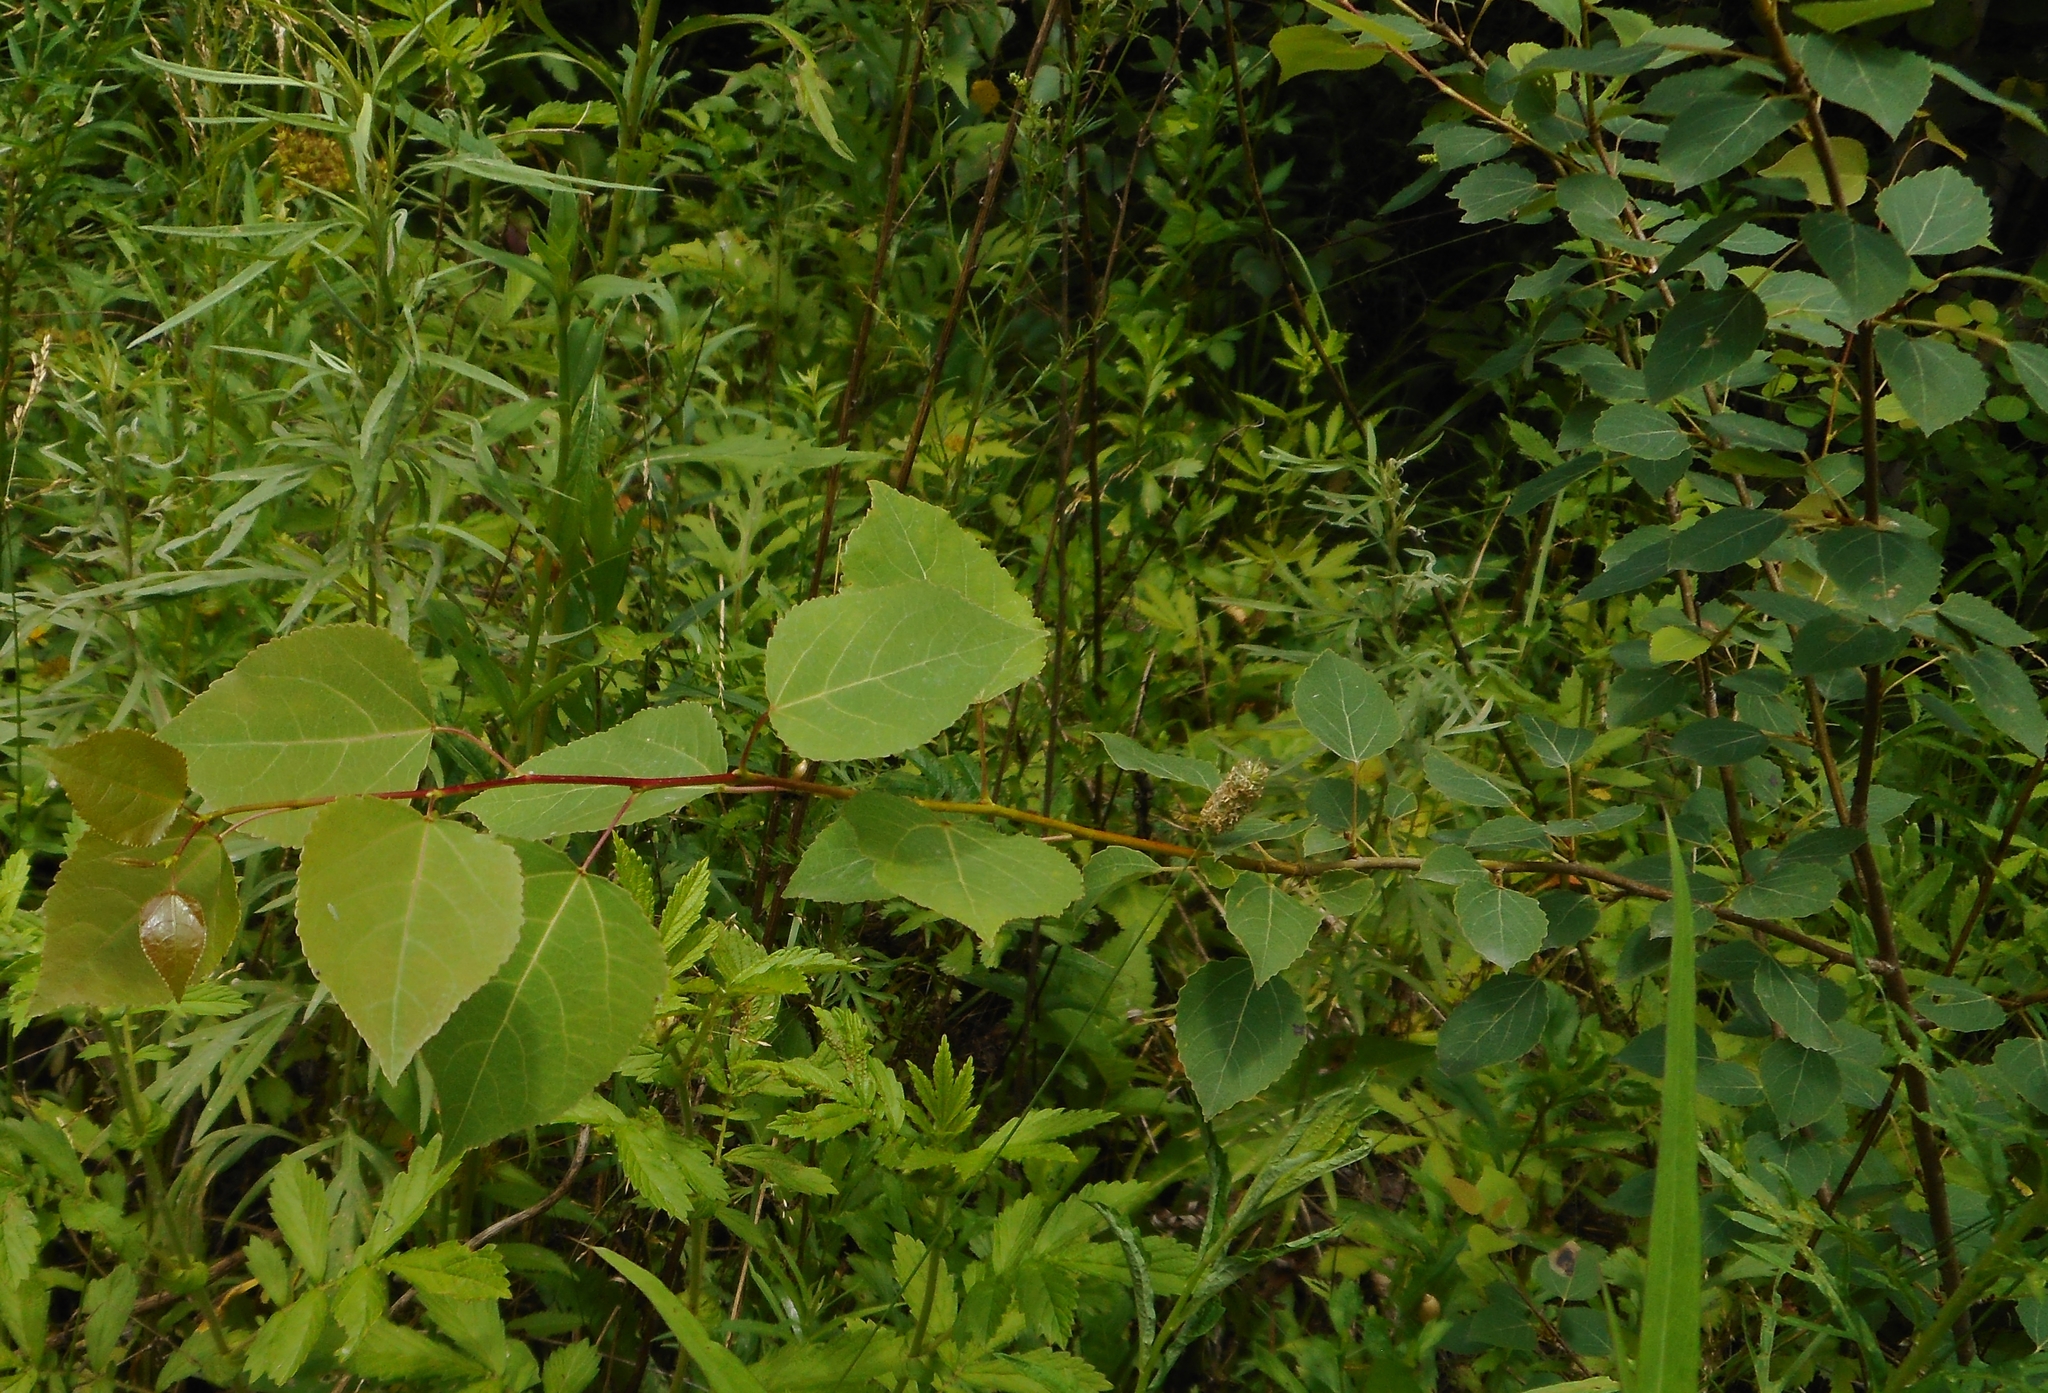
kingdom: Plantae
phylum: Tracheophyta
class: Magnoliopsida
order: Malpighiales
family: Salicaceae
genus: Populus
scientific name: Populus tremula
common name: European aspen
